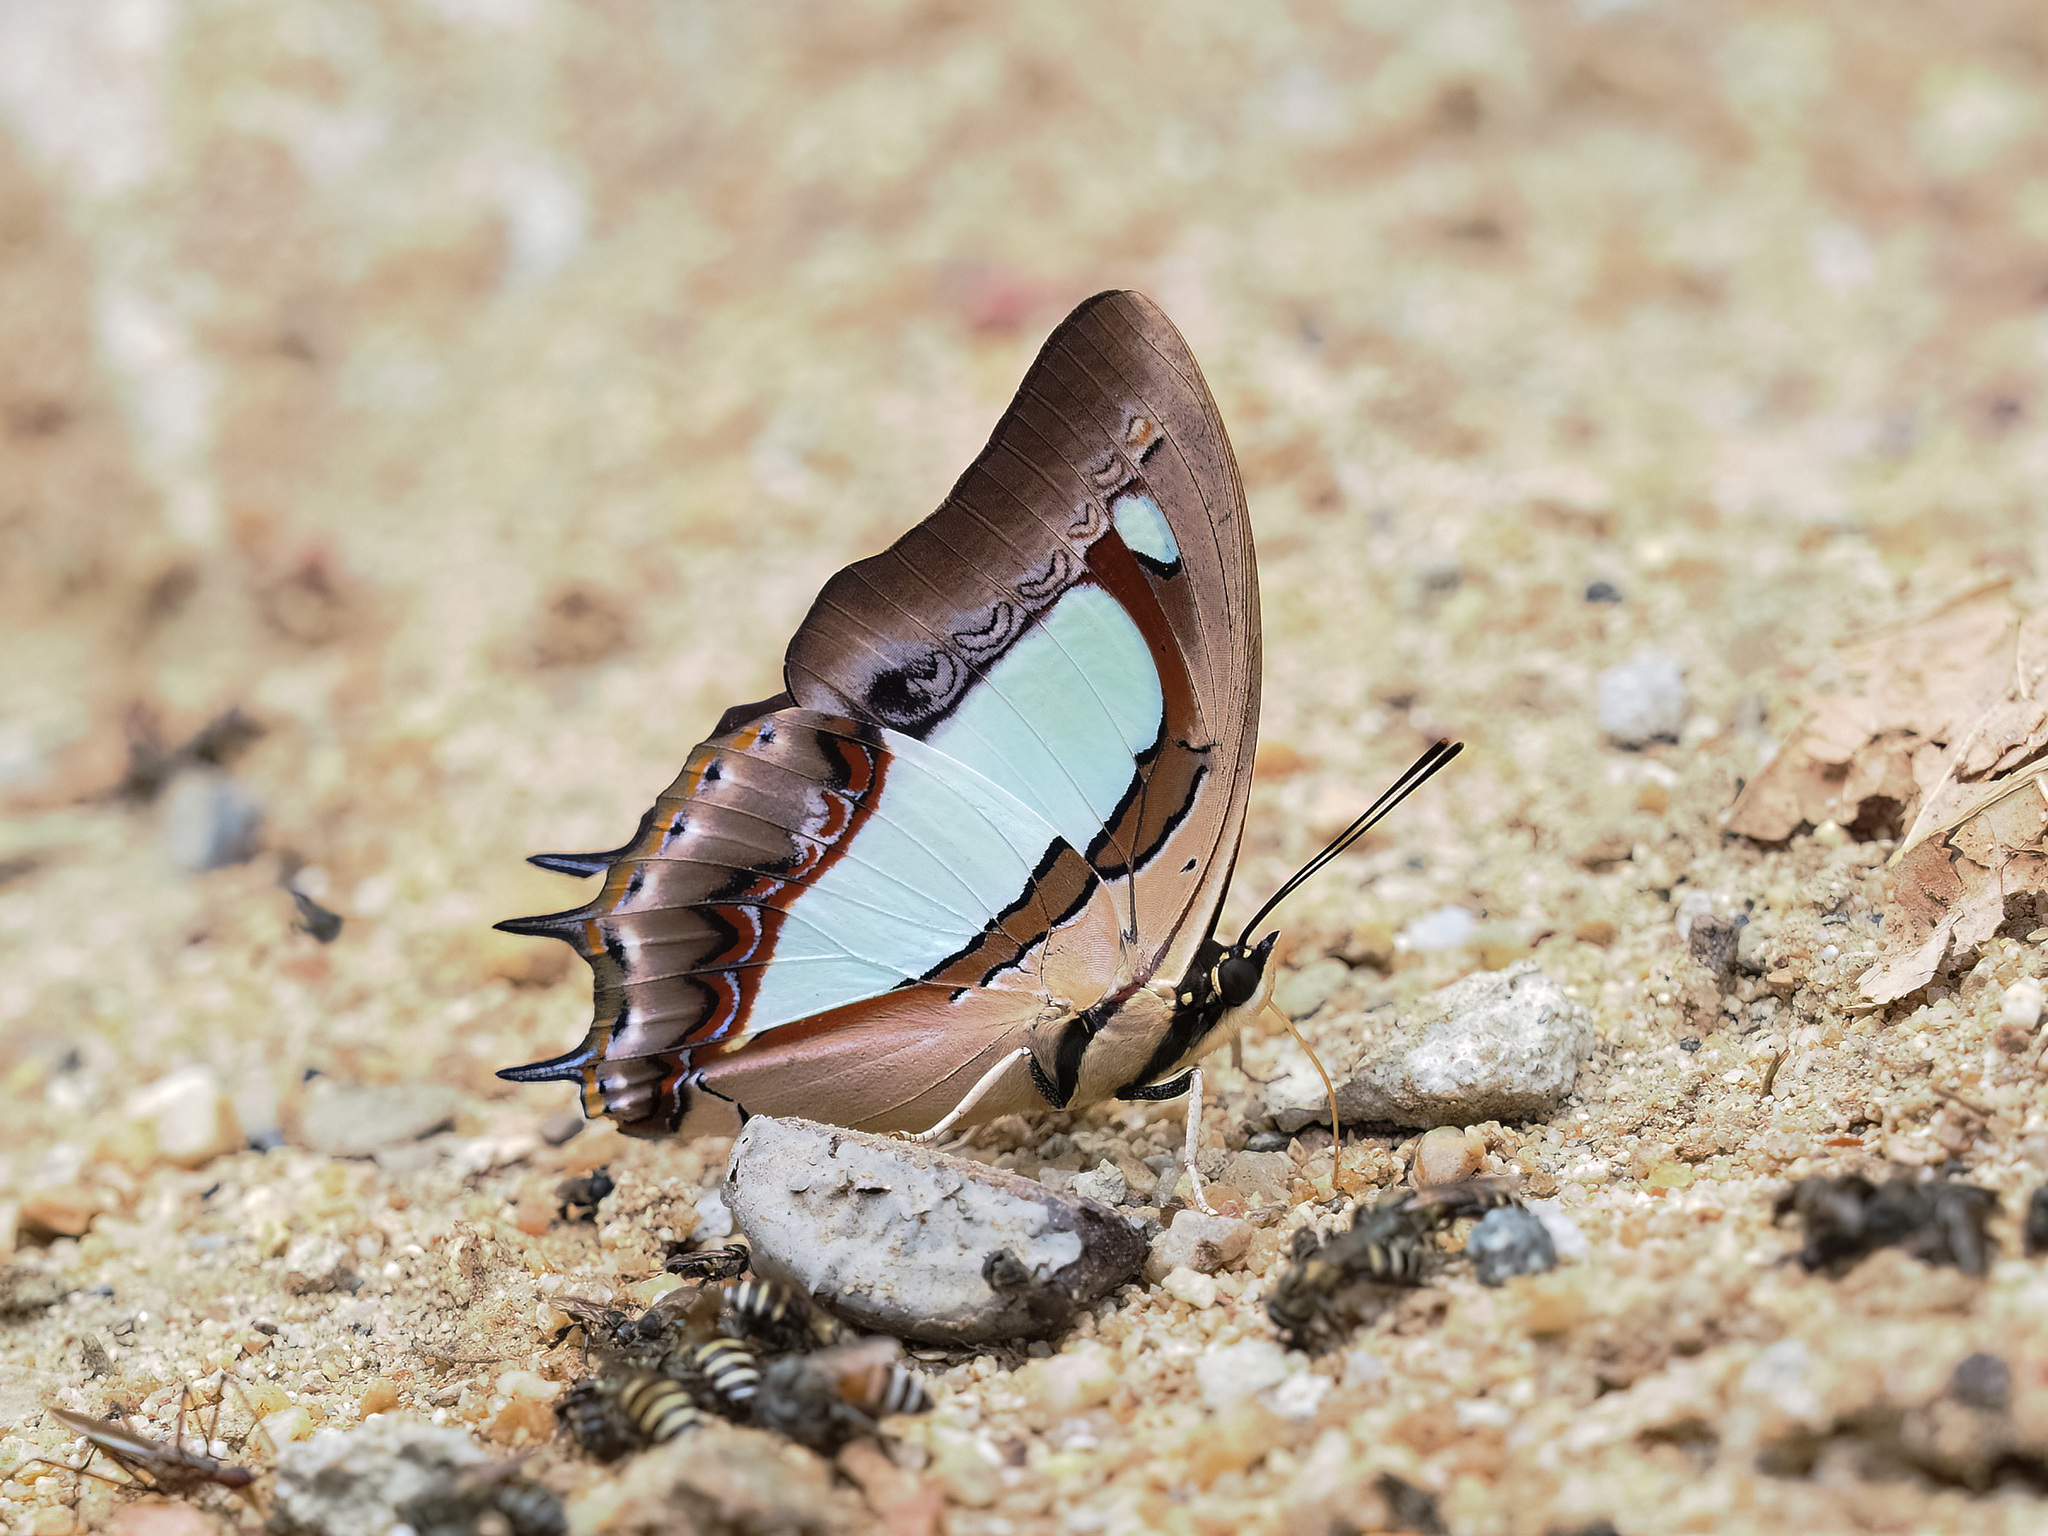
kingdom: Animalia
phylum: Arthropoda
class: Insecta
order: Lepidoptera
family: Nymphalidae
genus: Polyura
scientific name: Polyura arja
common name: Pallid nawab
